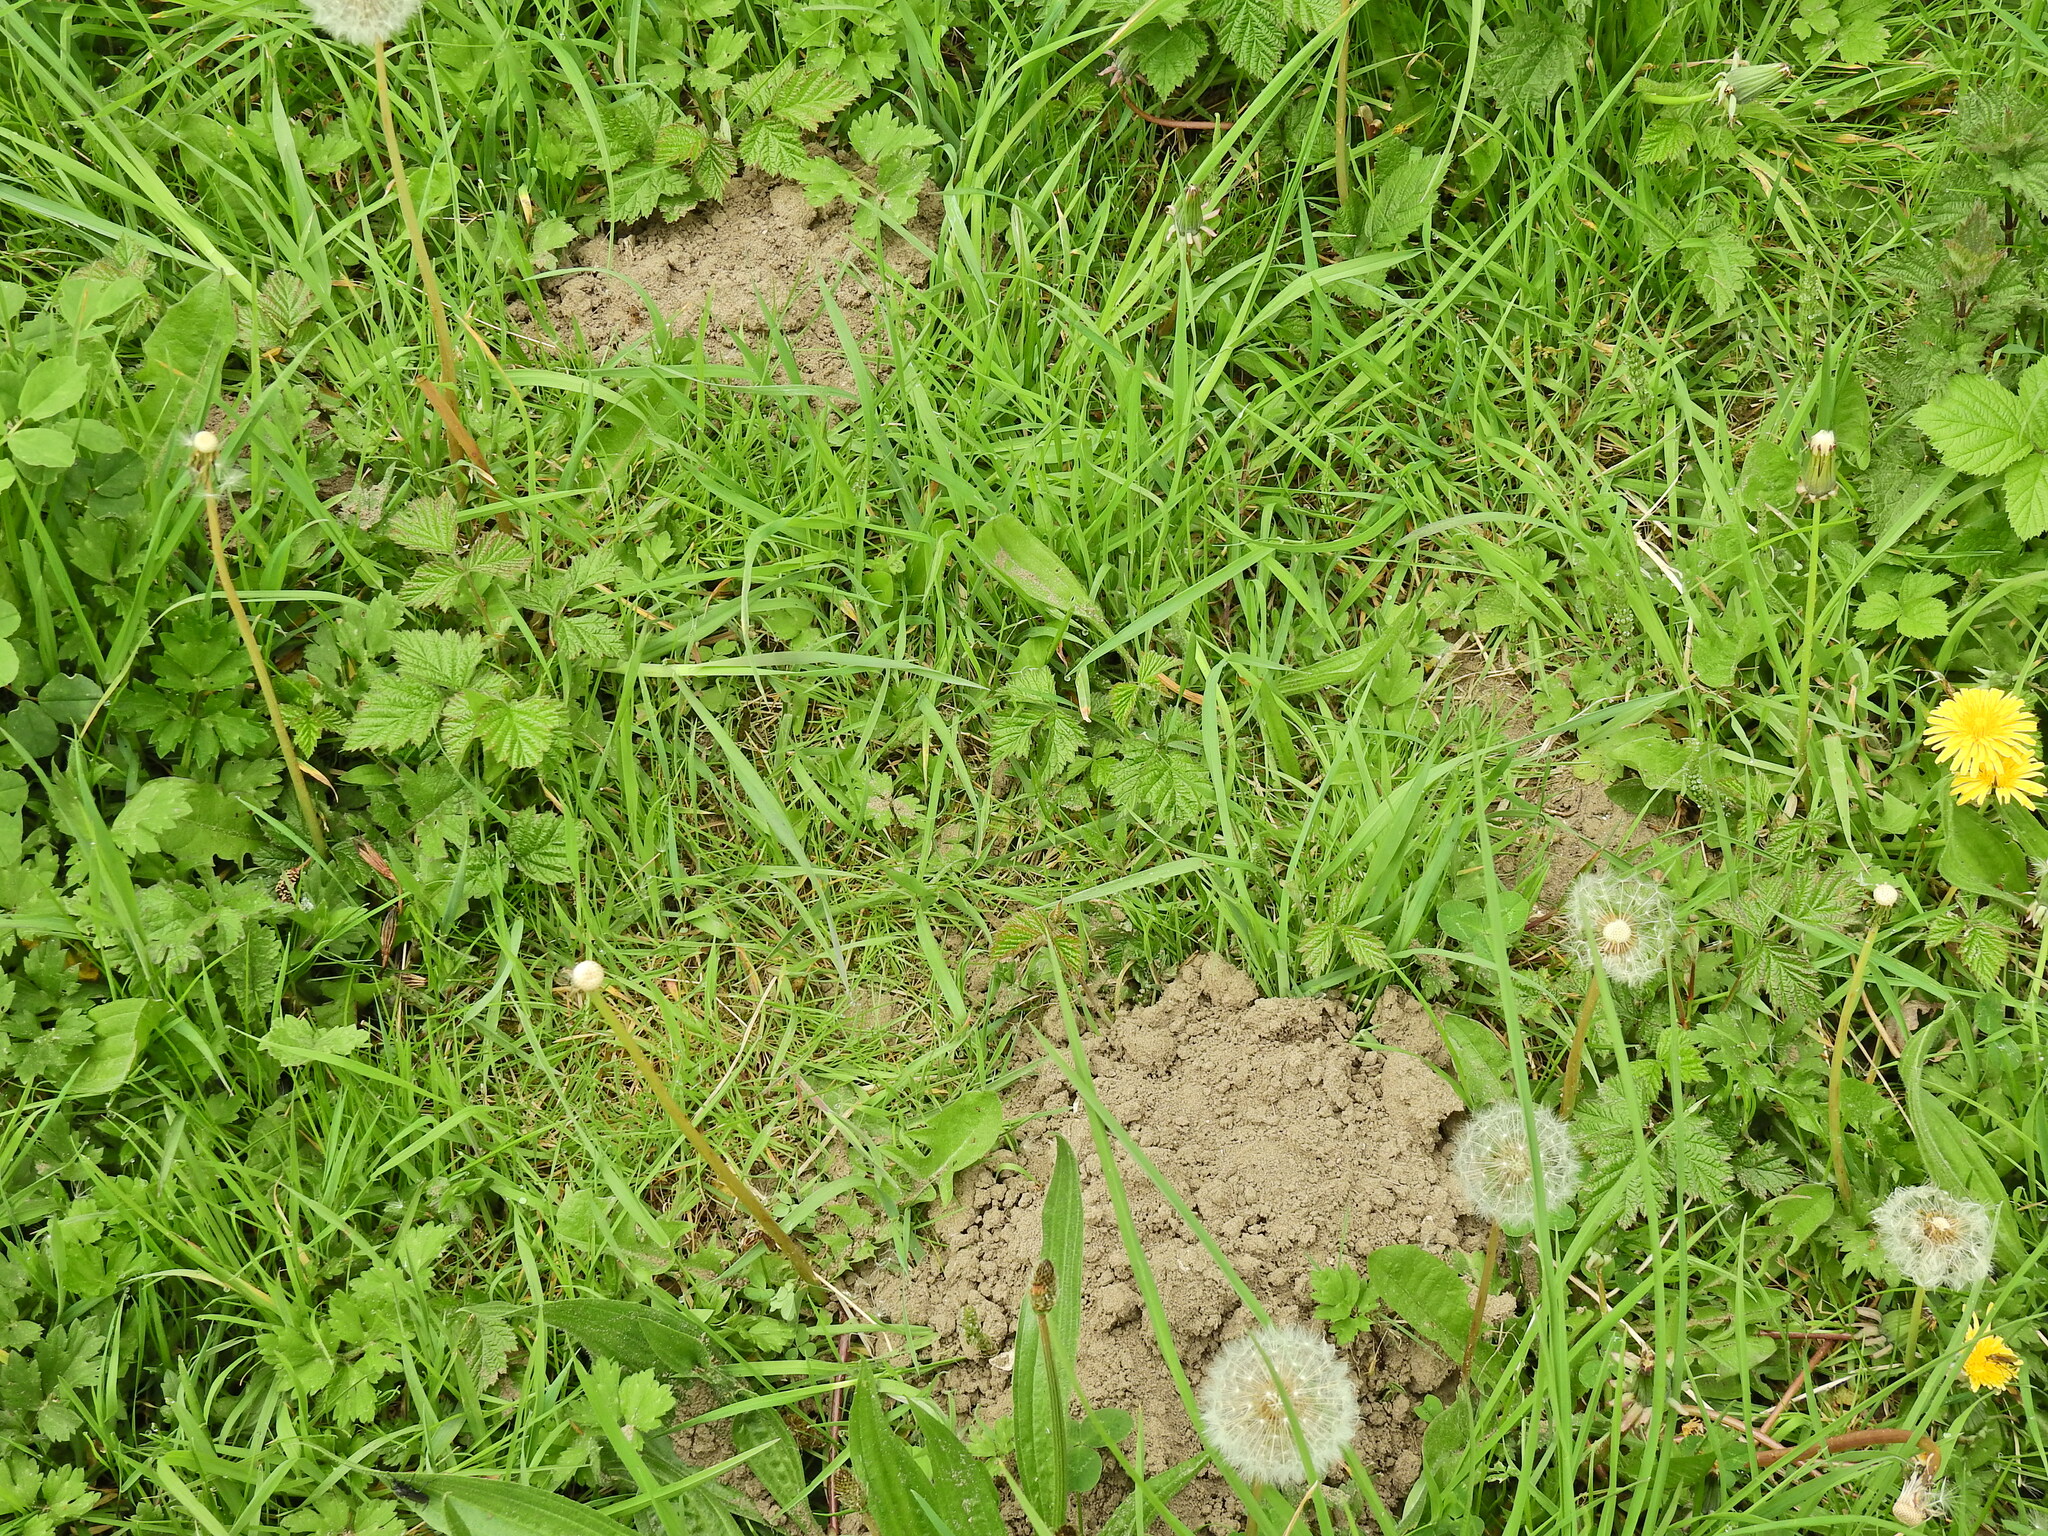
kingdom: Animalia
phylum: Chordata
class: Mammalia
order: Soricomorpha
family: Talpidae
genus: Talpa
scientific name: Talpa europaea
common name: European mole
